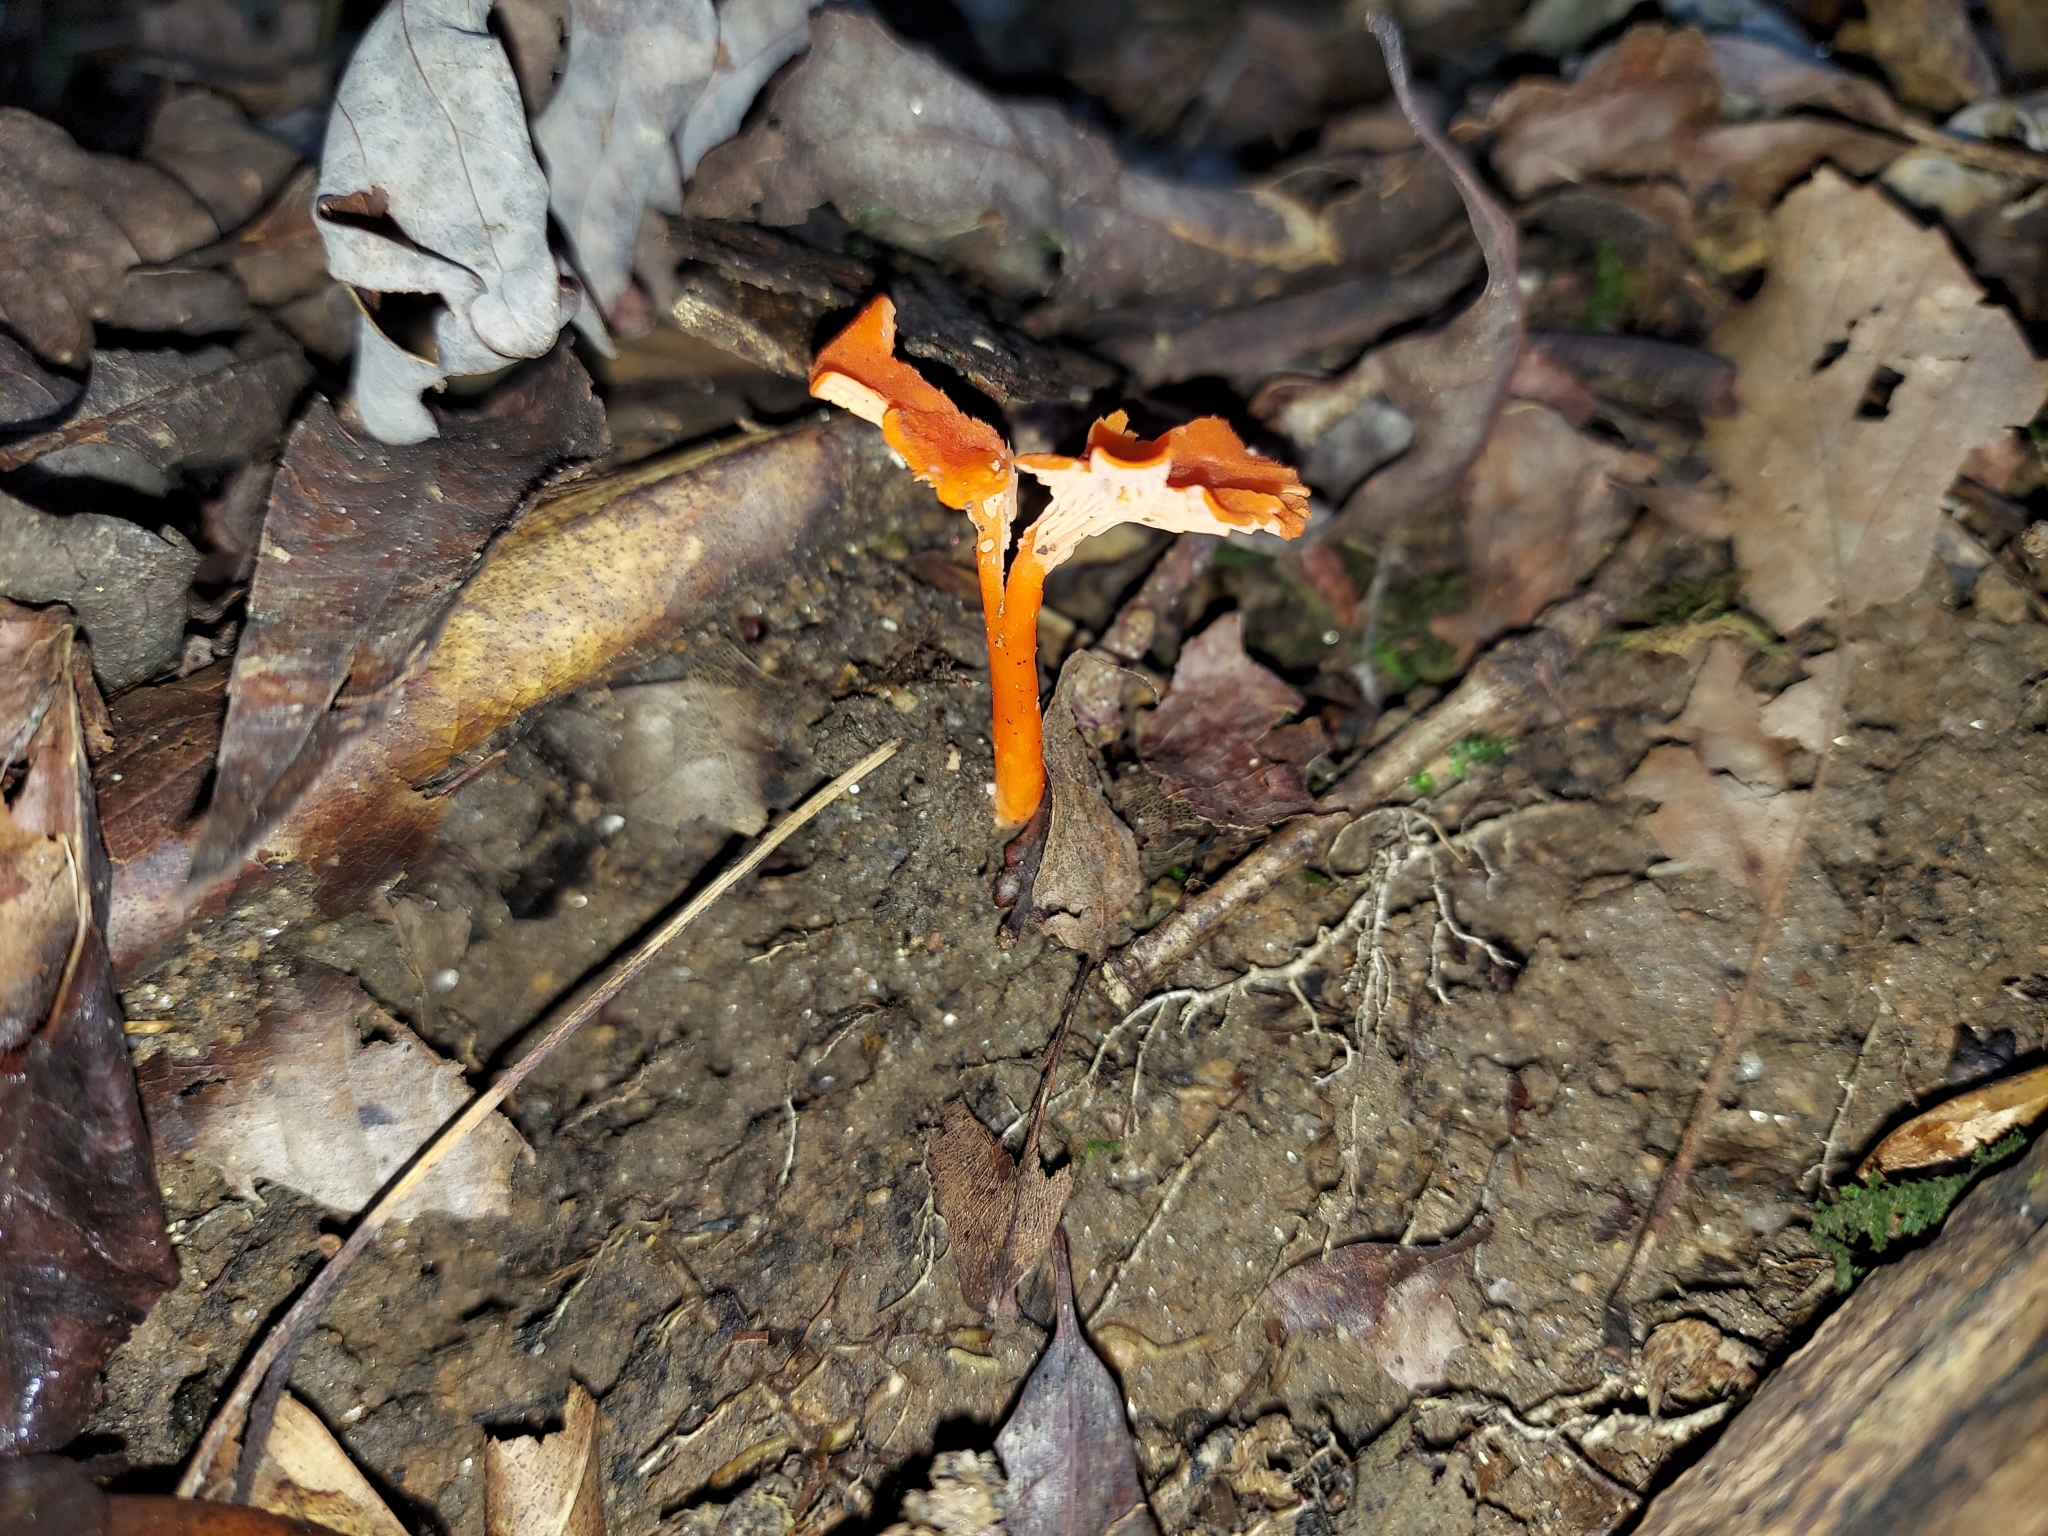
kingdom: Fungi
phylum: Basidiomycota
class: Agaricomycetes
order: Cantharellales
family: Hydnaceae
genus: Cantharellus
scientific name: Cantharellus cinnabarinus
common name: Cinnabar chanterelle
